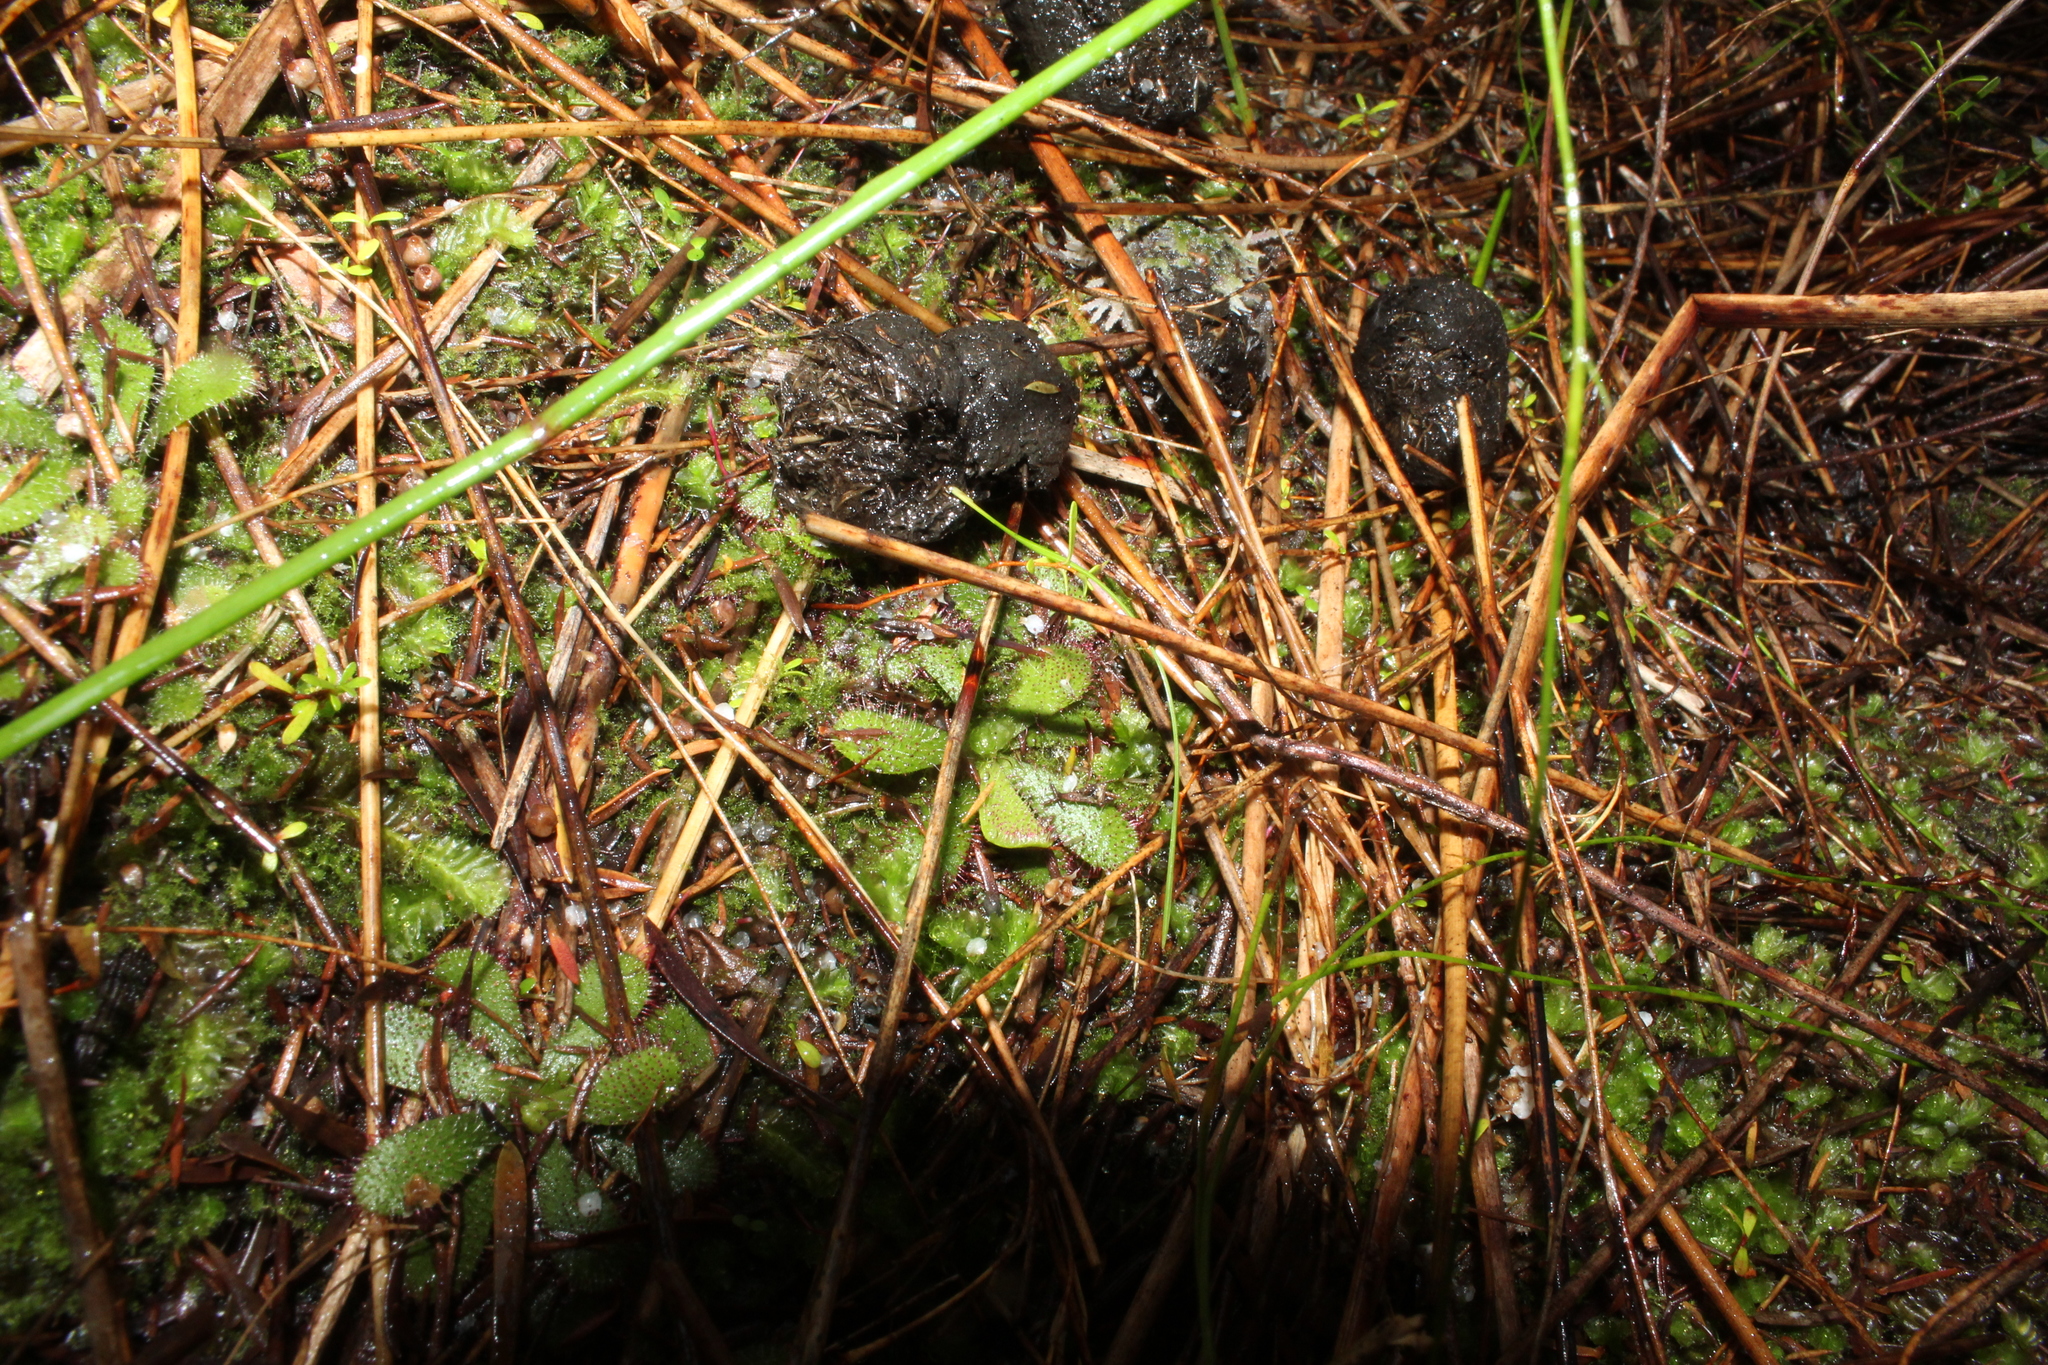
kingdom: Plantae
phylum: Tracheophyta
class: Magnoliopsida
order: Caryophyllales
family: Droseraceae
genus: Drosera
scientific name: Drosera hamiltonii
